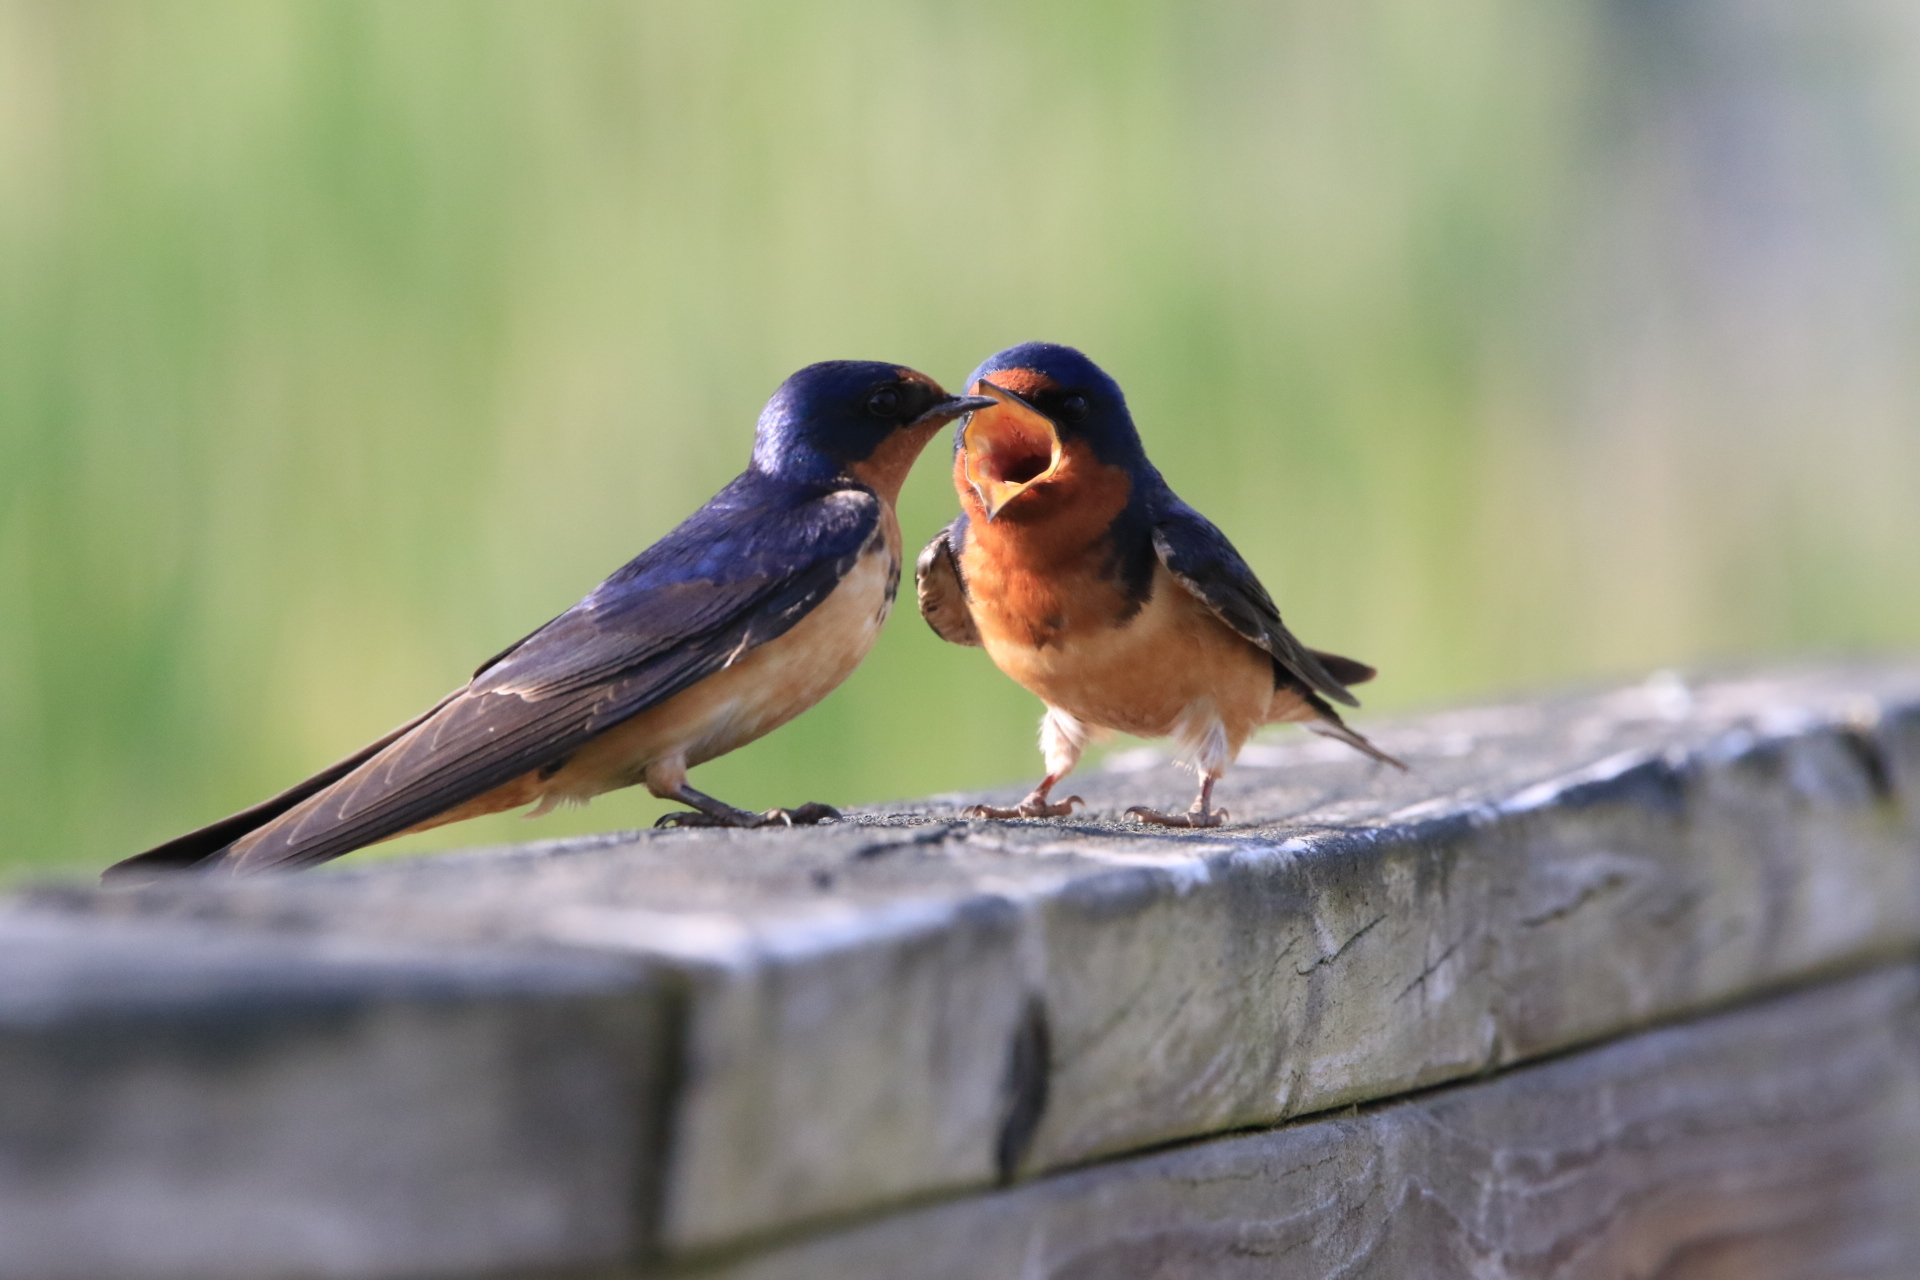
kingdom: Animalia
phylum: Chordata
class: Aves
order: Passeriformes
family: Hirundinidae
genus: Hirundo
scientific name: Hirundo rustica
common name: Barn swallow
